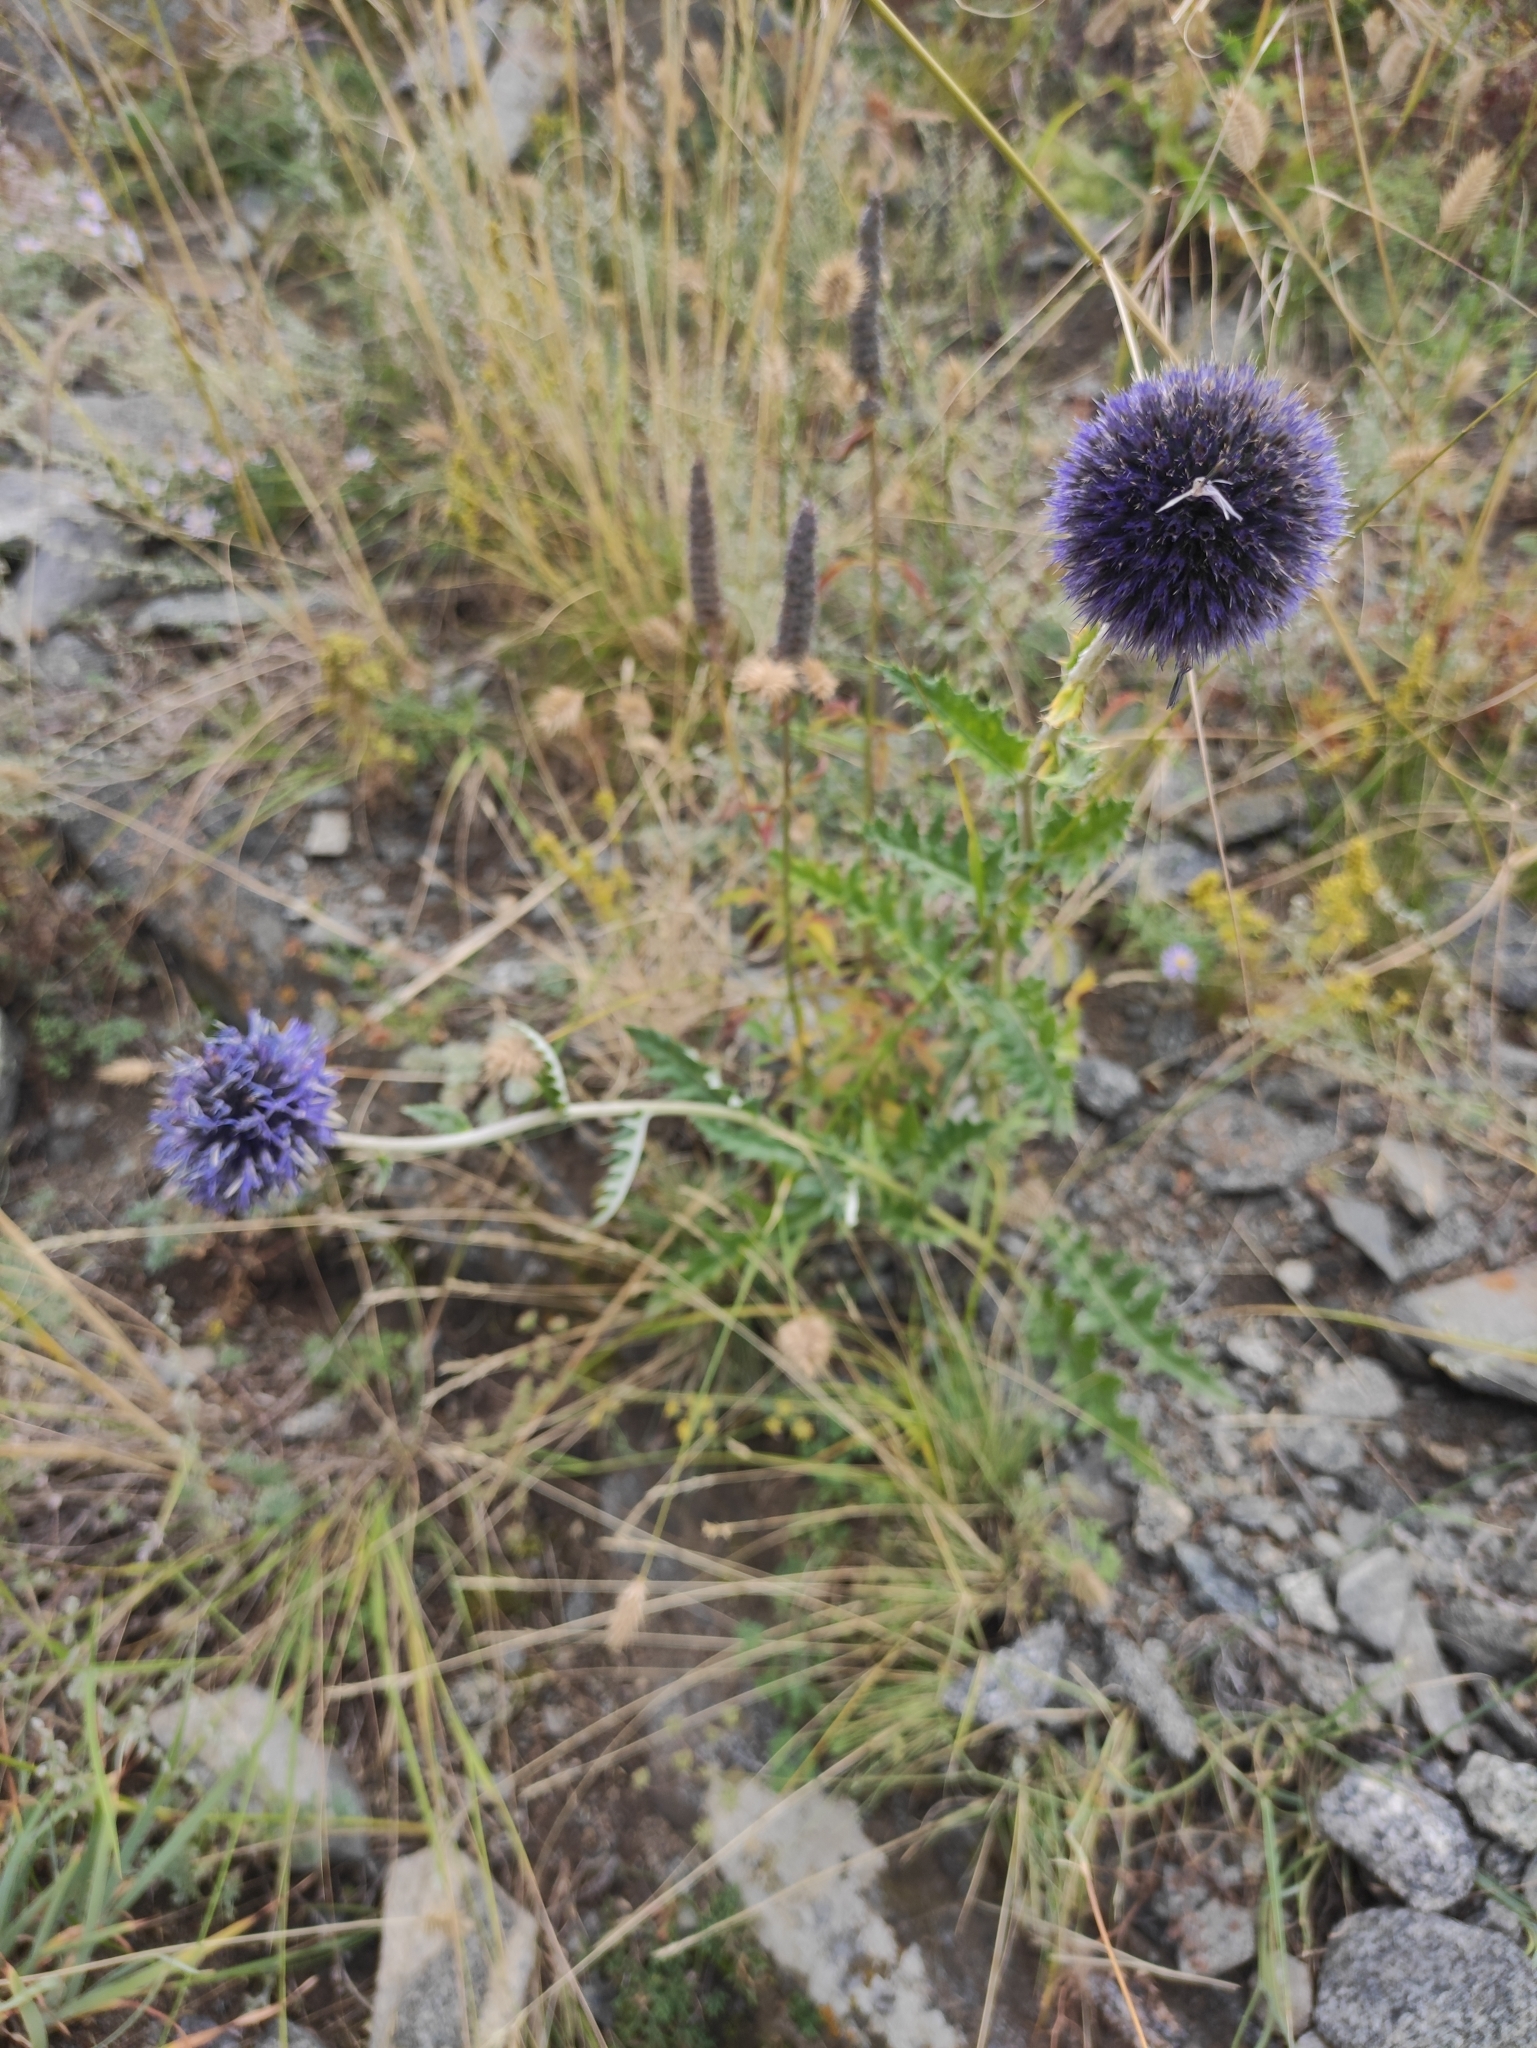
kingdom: Plantae
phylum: Tracheophyta
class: Magnoliopsida
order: Asterales
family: Asteraceae
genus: Echinops
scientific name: Echinops davuricus
